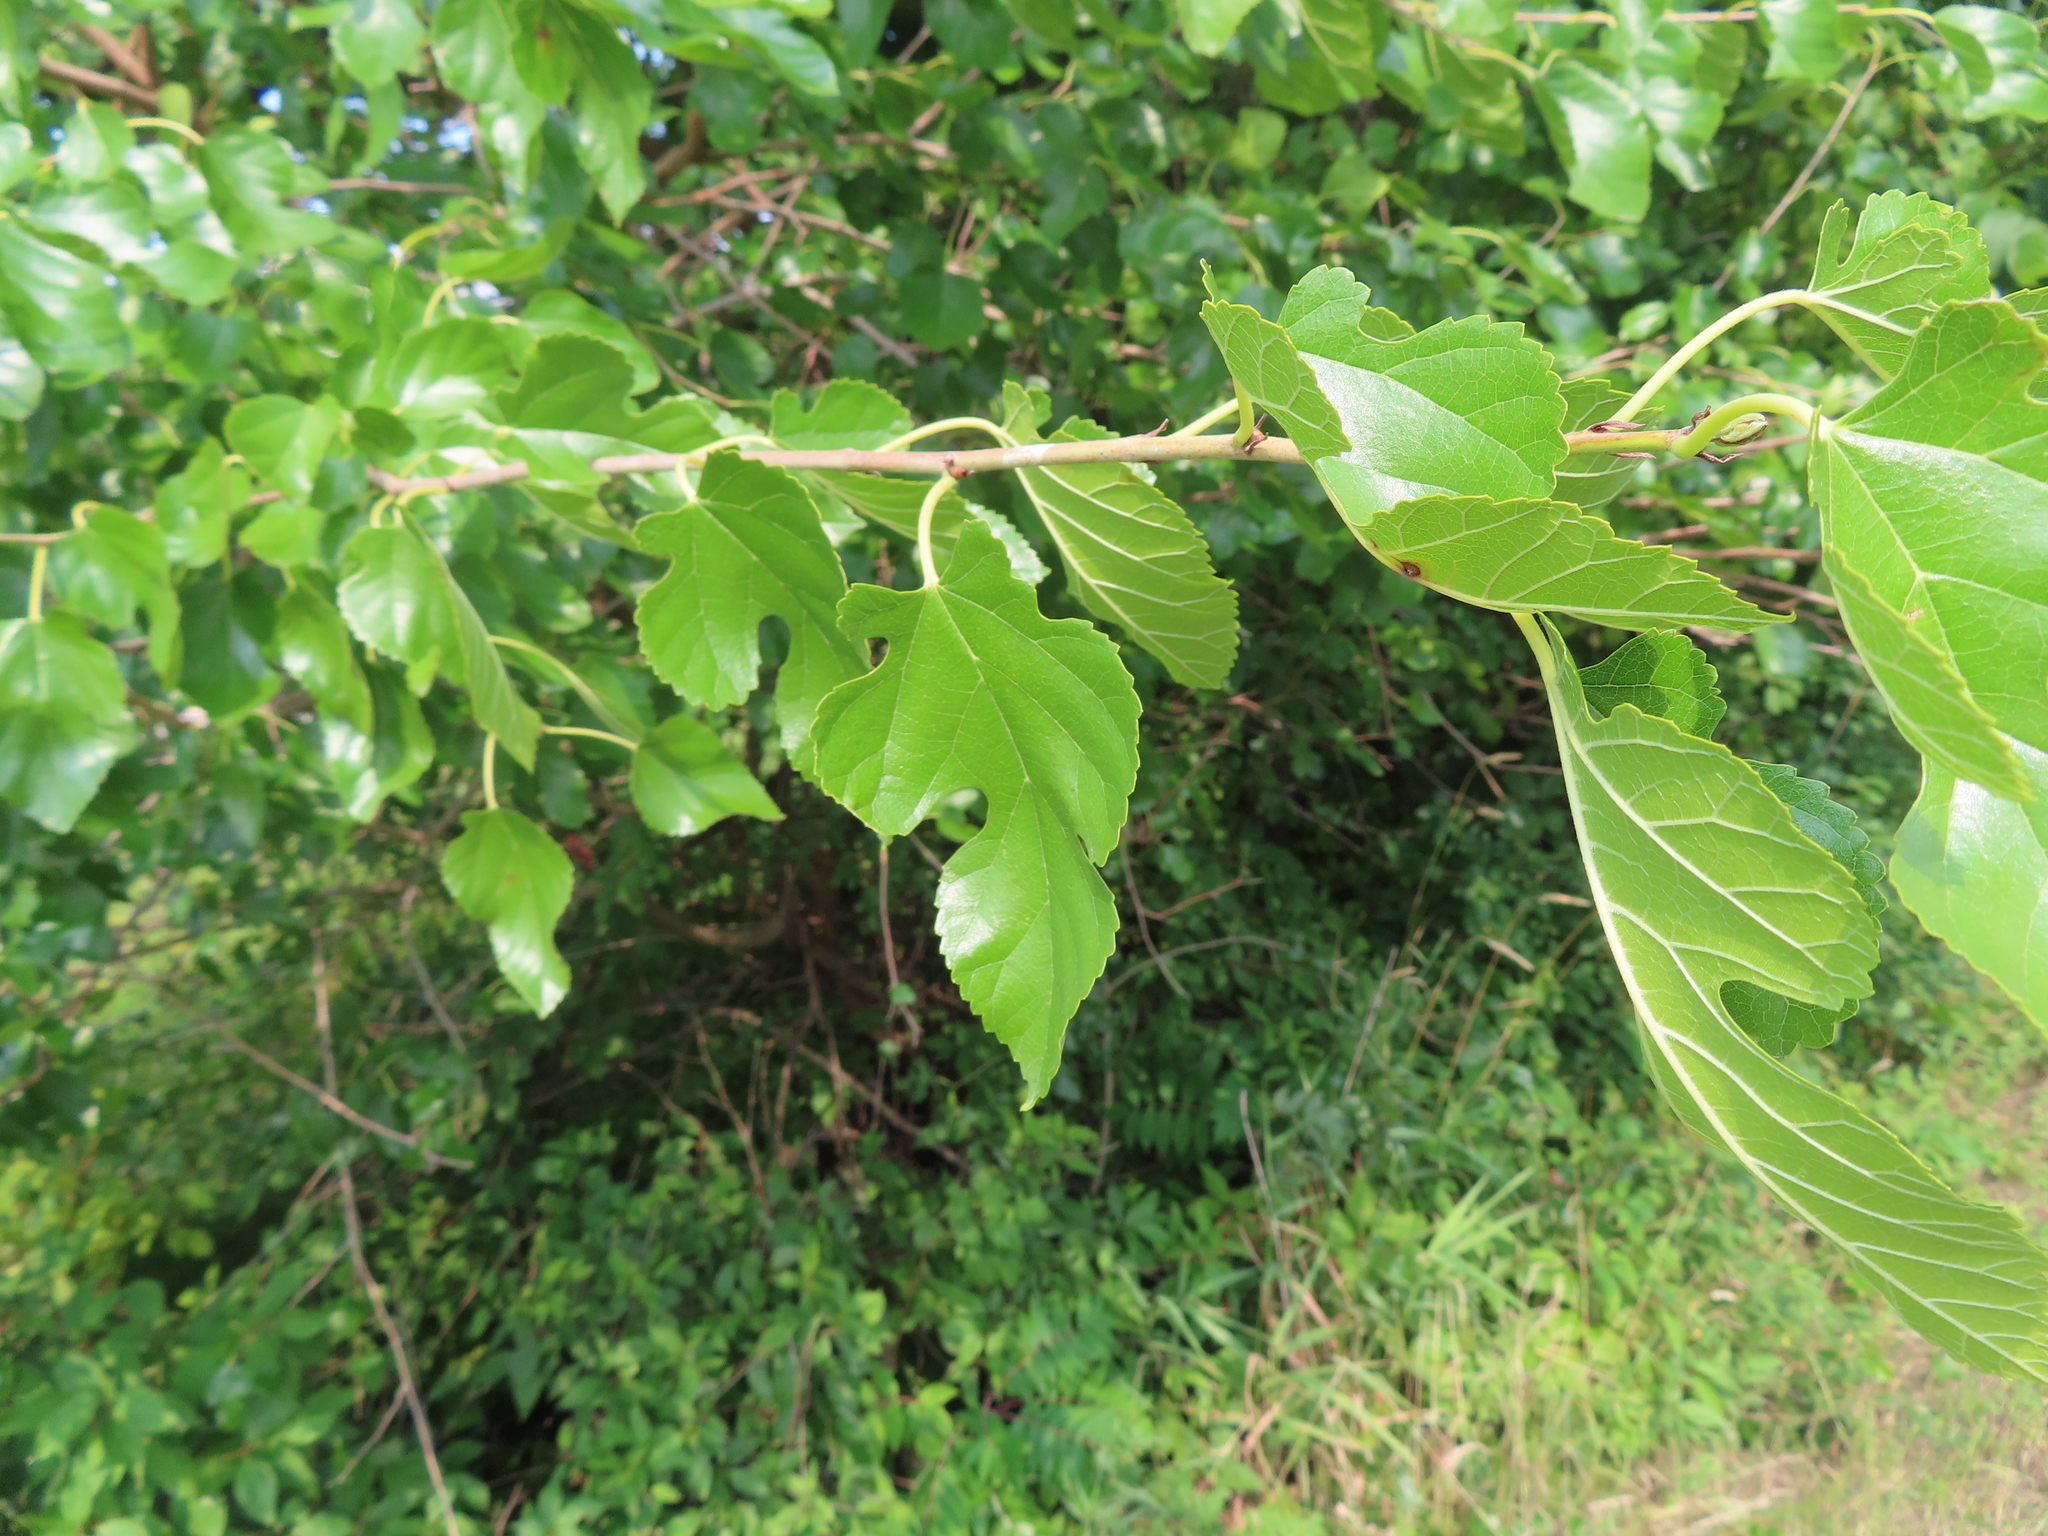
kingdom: Plantae
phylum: Tracheophyta
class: Magnoliopsida
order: Rosales
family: Moraceae
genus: Morus
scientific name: Morus alba
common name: White mulberry
